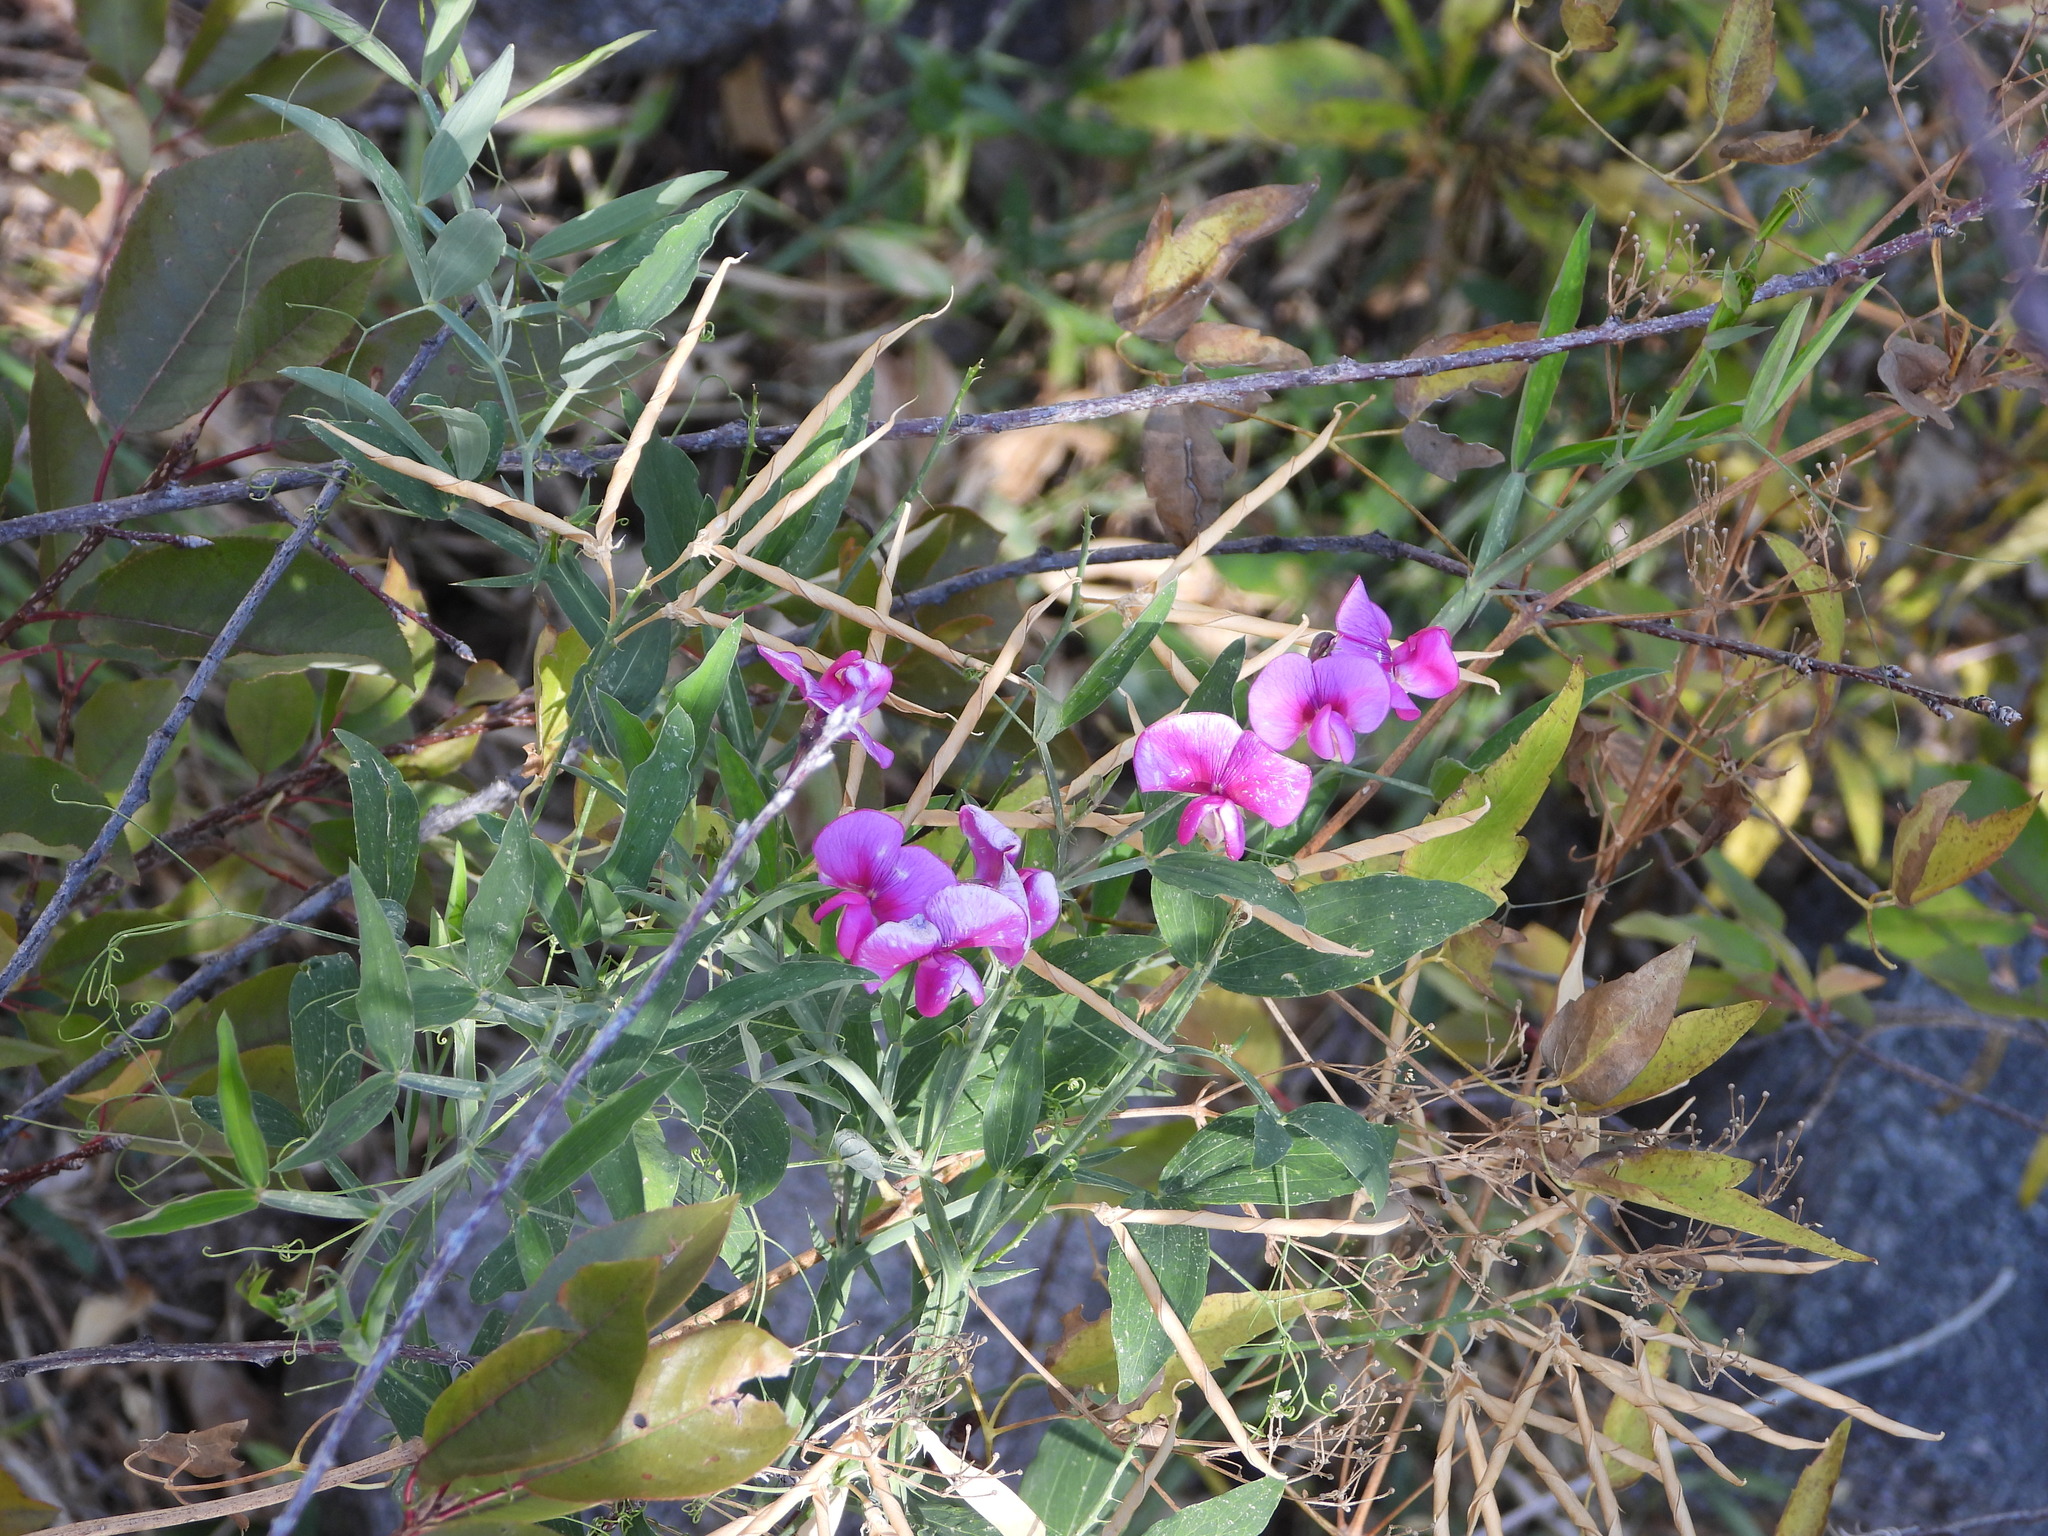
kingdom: Plantae
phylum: Tracheophyta
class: Magnoliopsida
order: Fabales
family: Fabaceae
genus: Lathyrus
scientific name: Lathyrus latifolius
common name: Perennial pea
